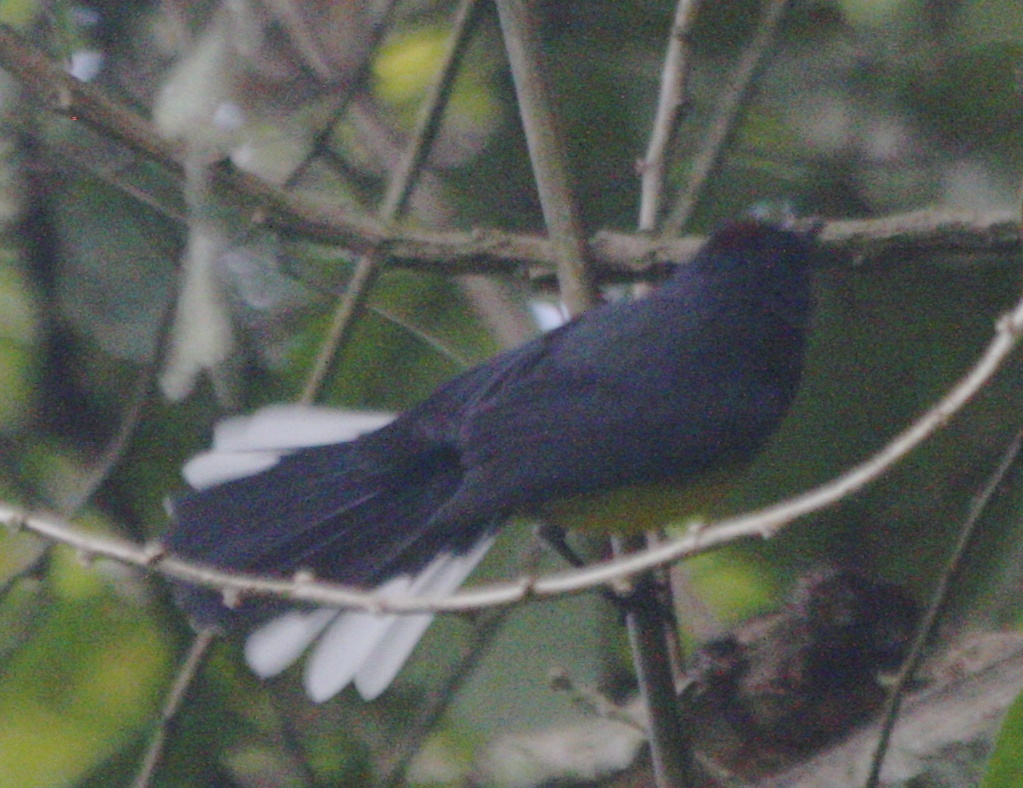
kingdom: Animalia
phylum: Chordata
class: Aves
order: Passeriformes
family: Parulidae
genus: Myioborus
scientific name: Myioborus miniatus
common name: Slate-throated redstart
